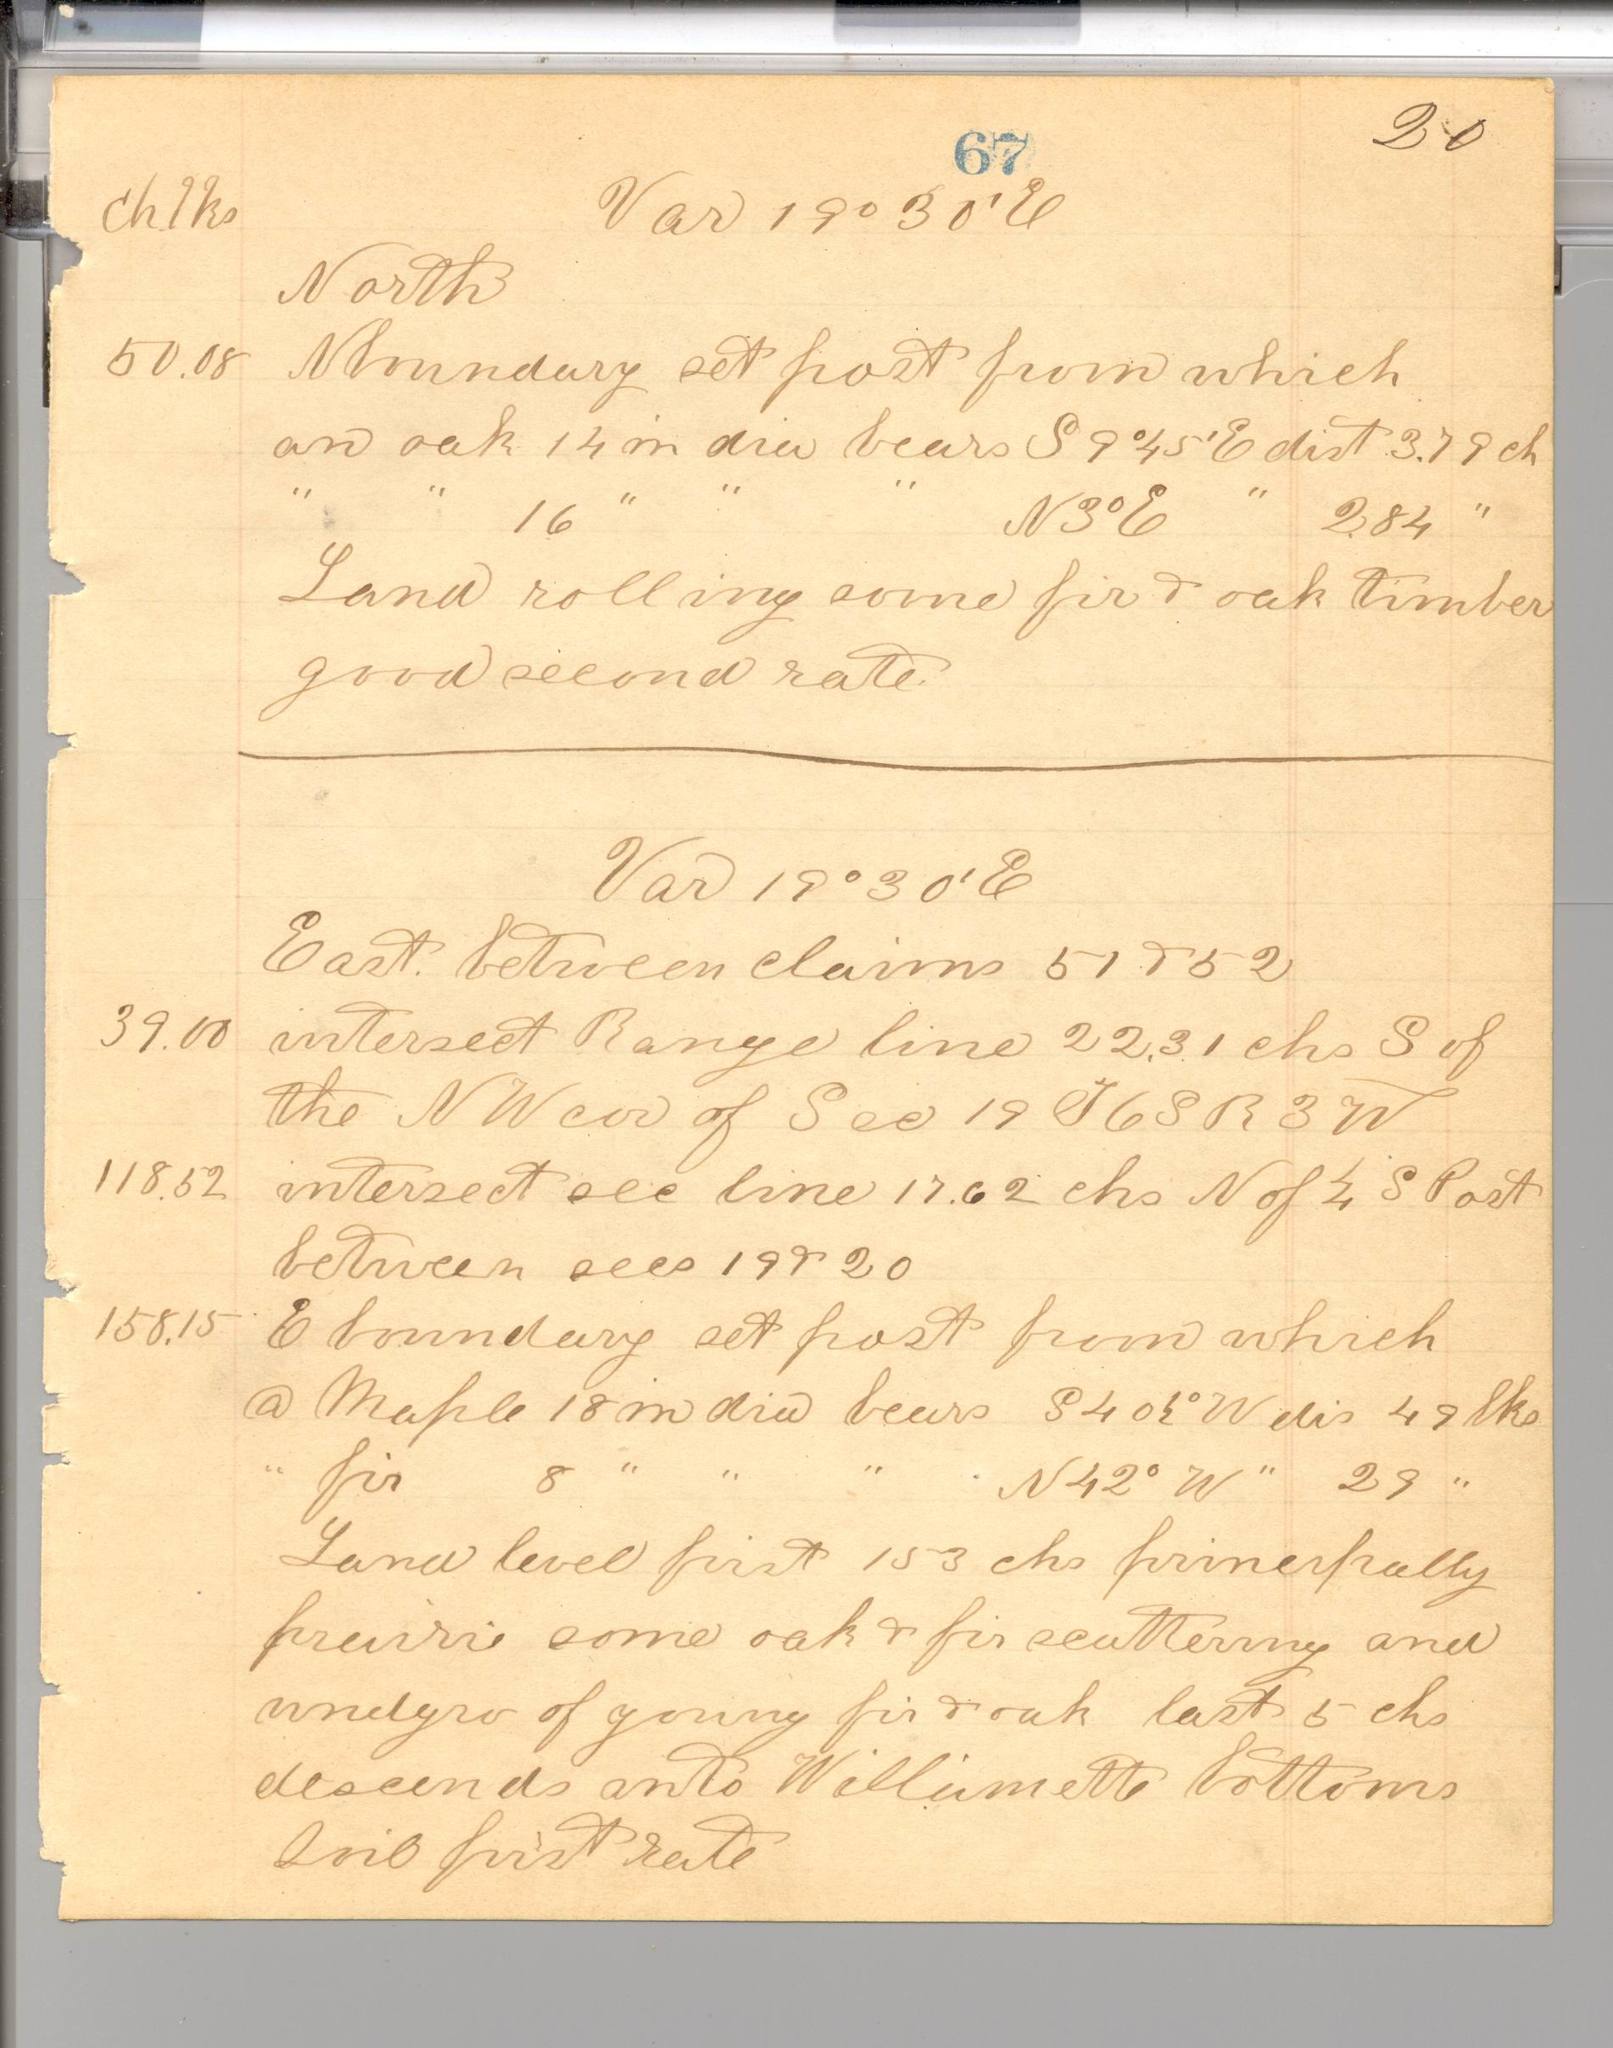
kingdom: Plantae
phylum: Tracheophyta
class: Magnoliopsida
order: Fagales
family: Fagaceae
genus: Quercus
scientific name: Quercus garryana
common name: Garry oak
